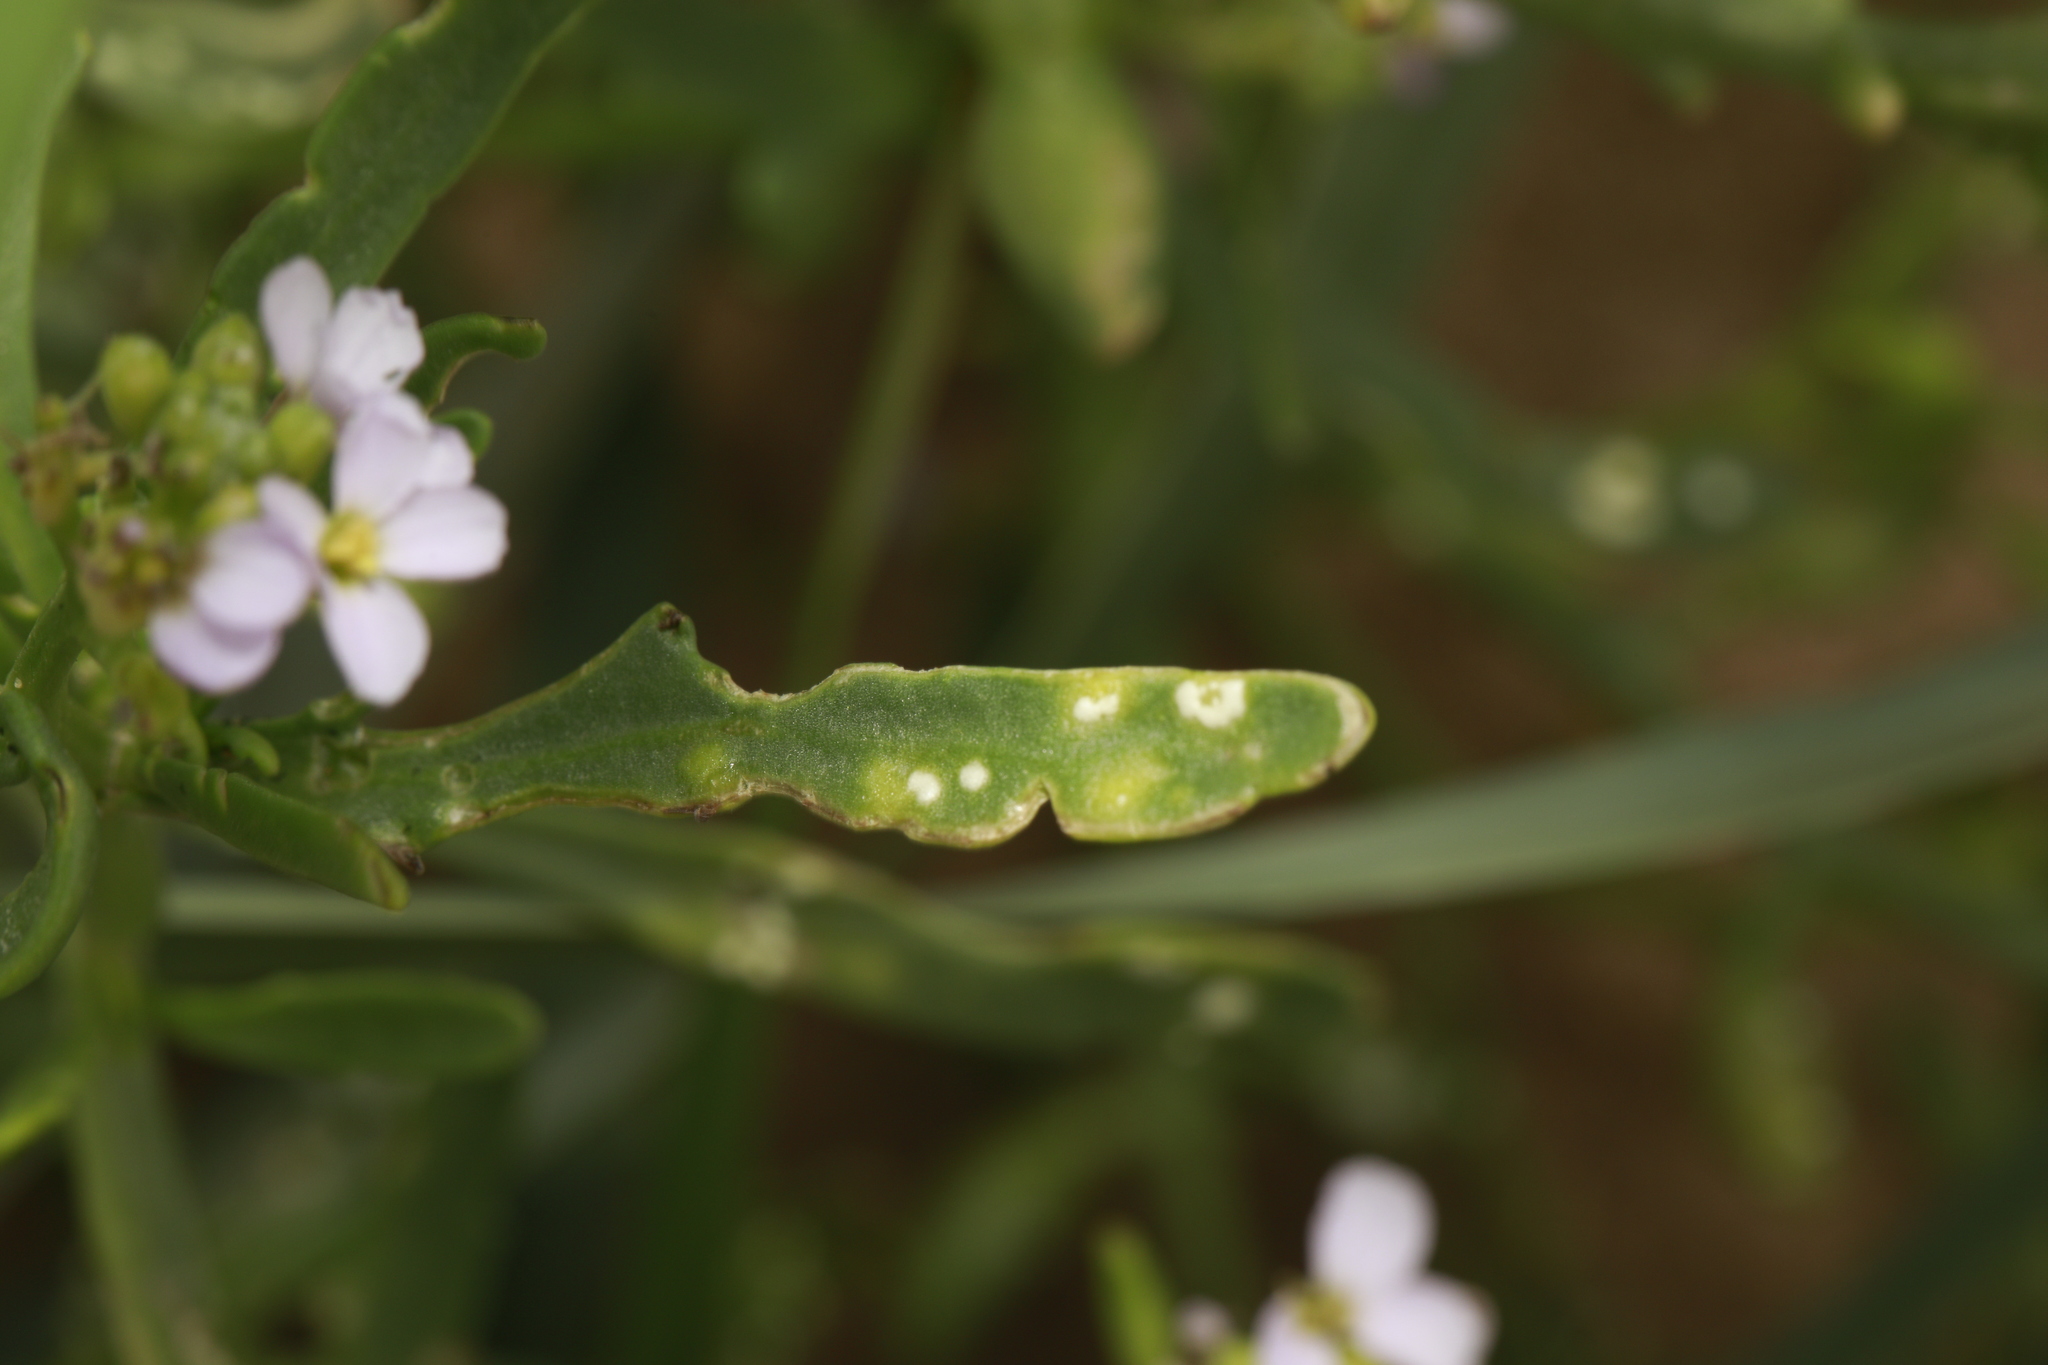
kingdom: Chromista
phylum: Oomycota
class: Peronosporea
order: Albuginales
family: Albuginaceae
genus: Albugo
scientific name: Albugo candida
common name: Crucifer white blister
